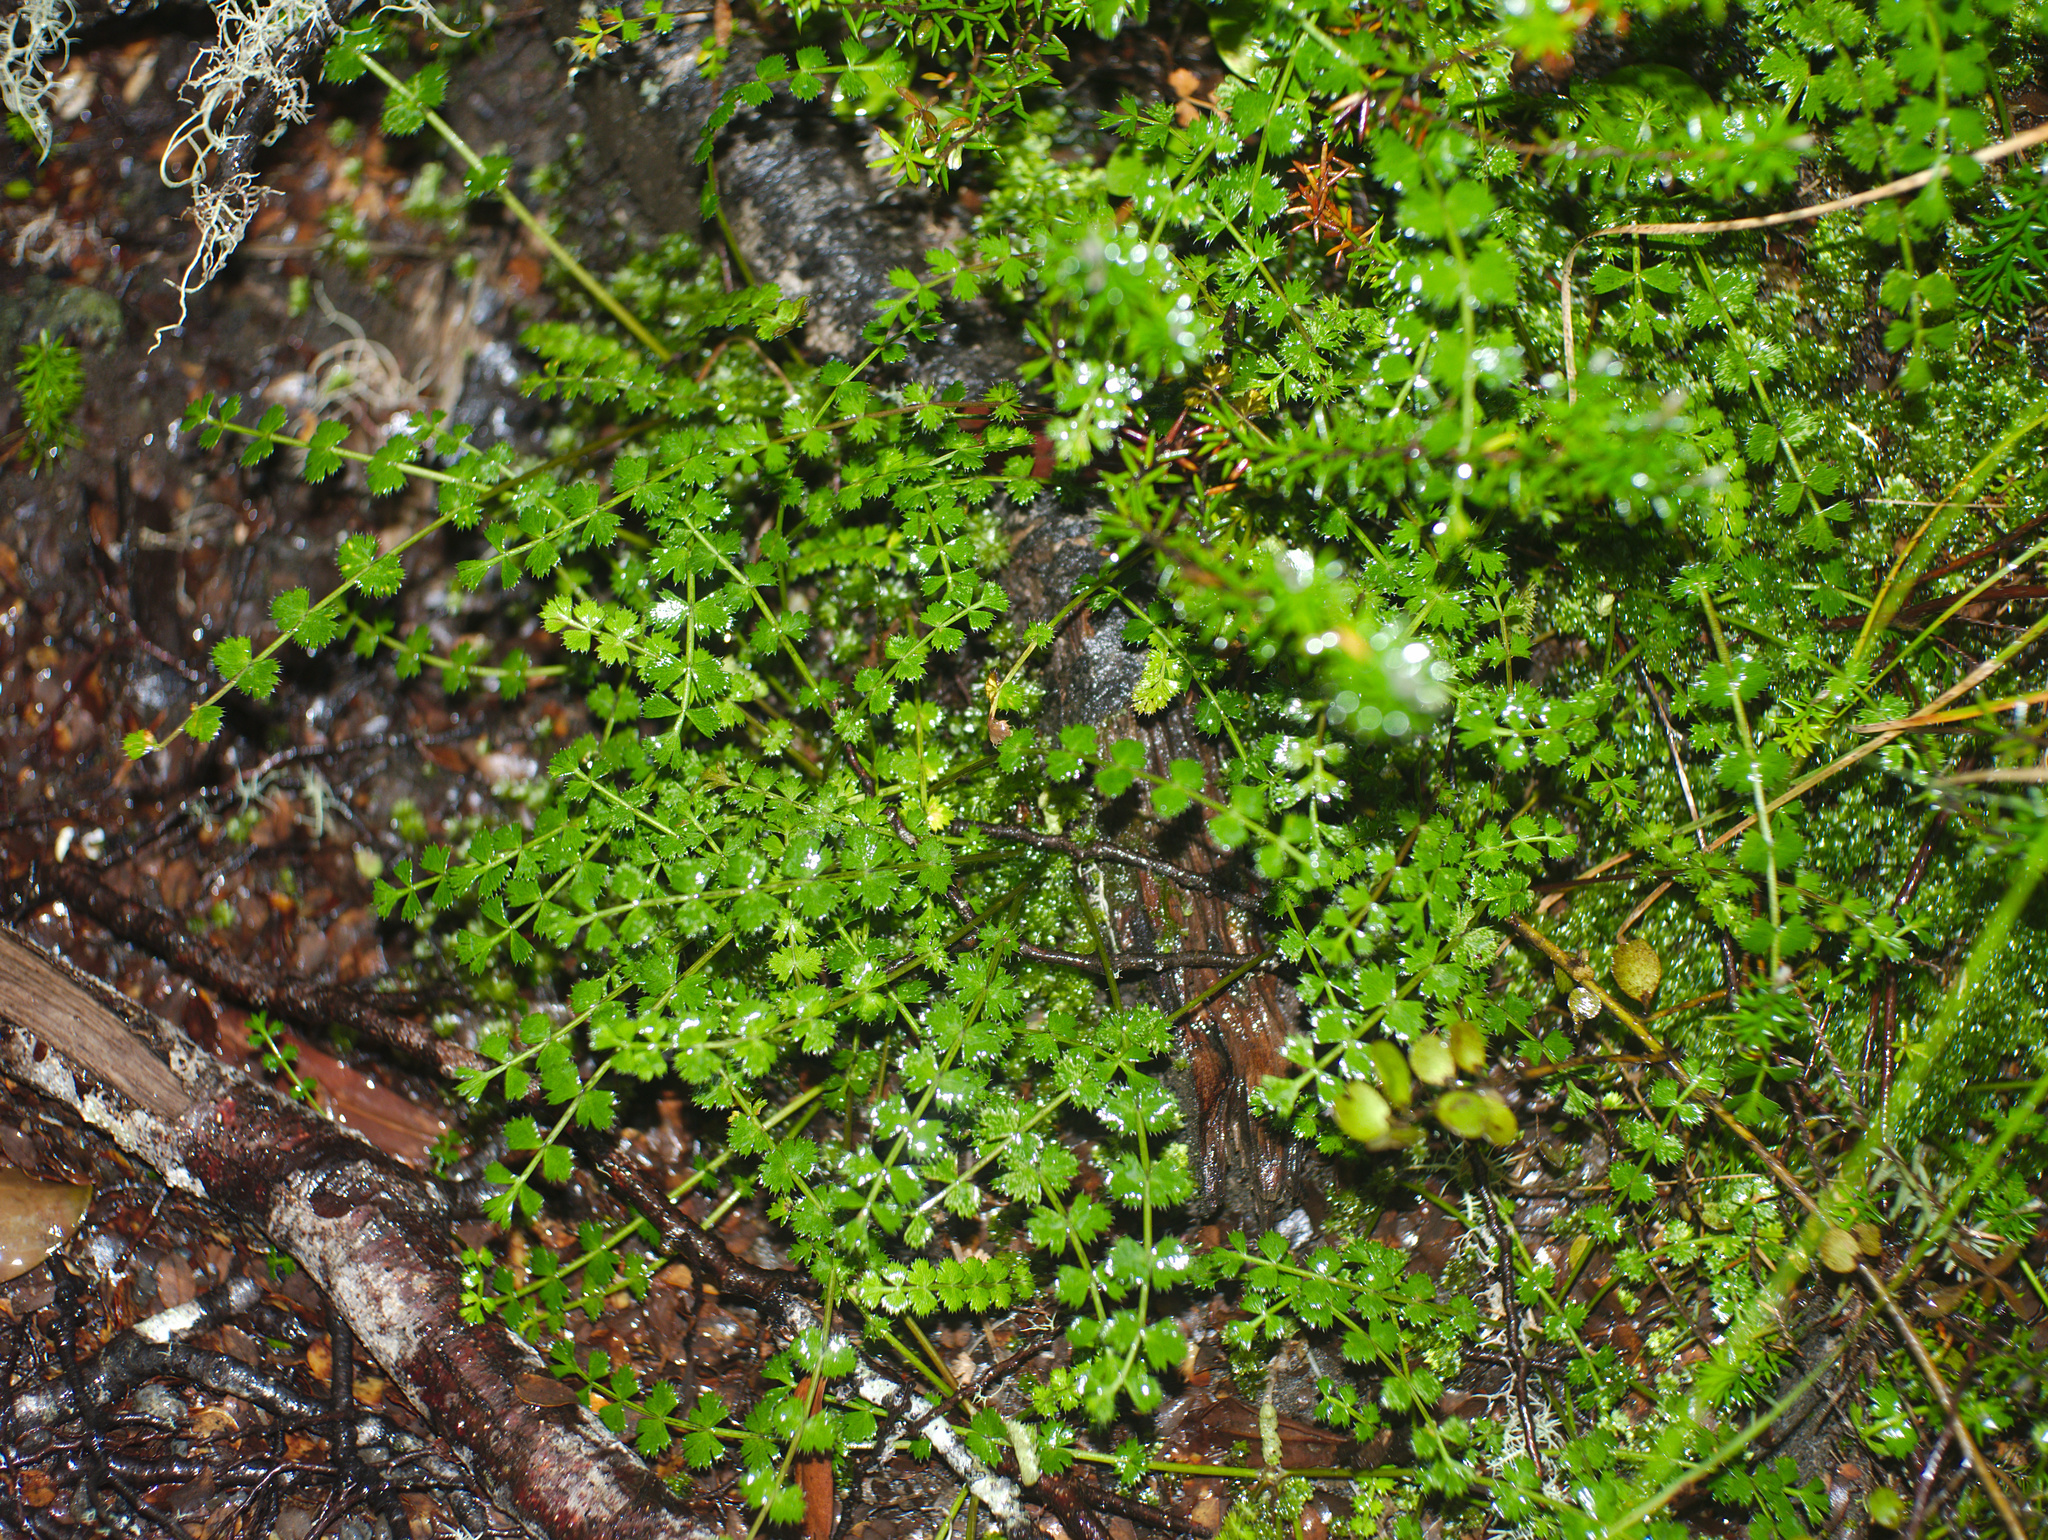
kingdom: Plantae
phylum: Tracheophyta
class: Magnoliopsida
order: Apiales
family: Apiaceae
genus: Anisotome
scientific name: Anisotome aromatica
